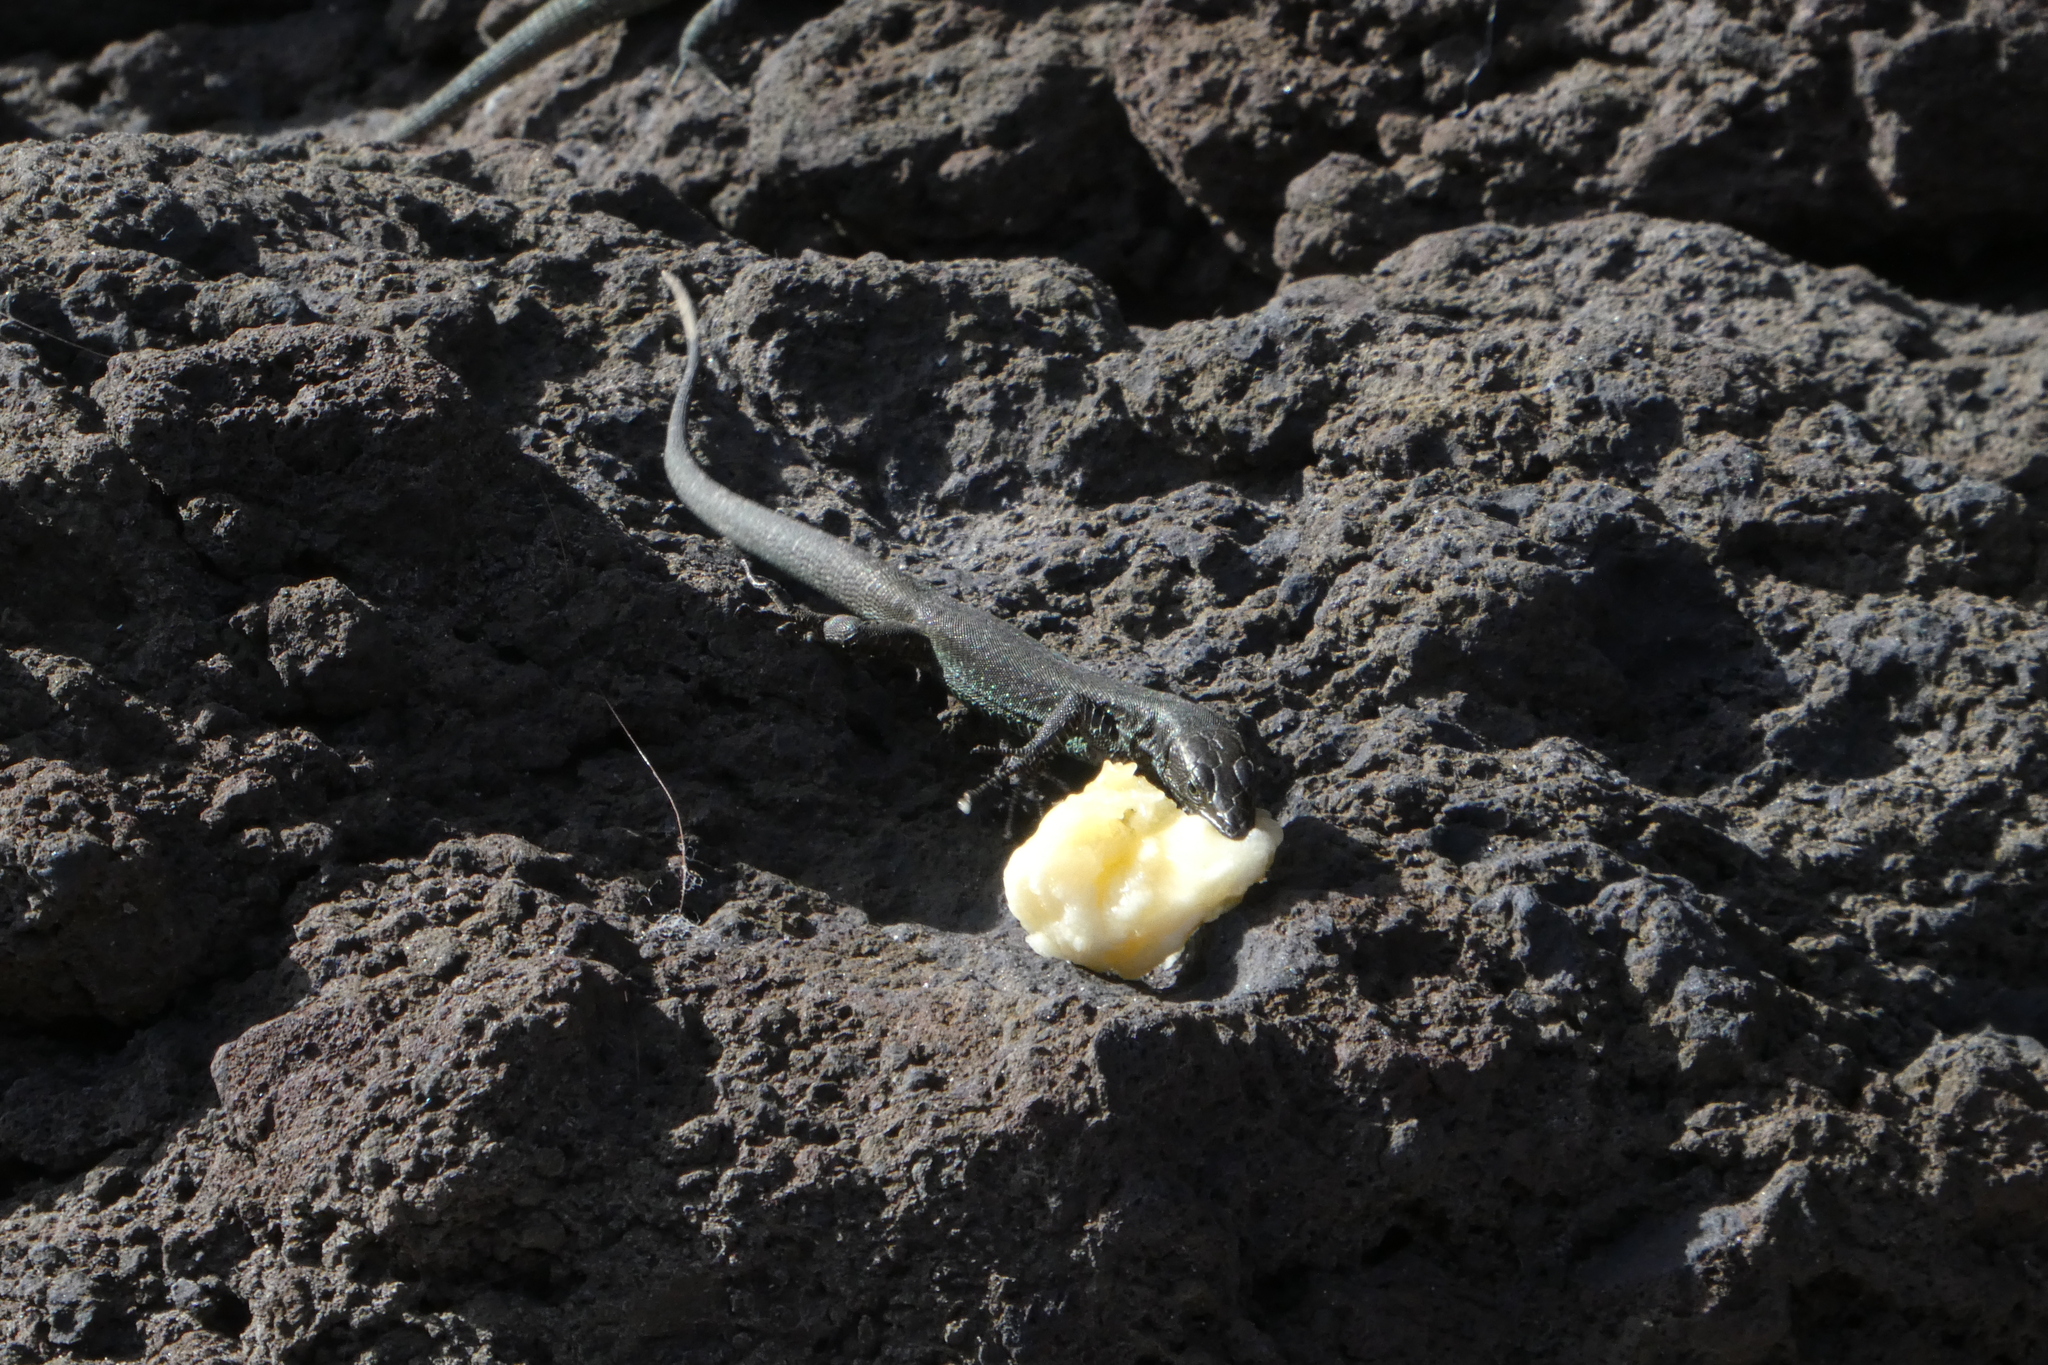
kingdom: Animalia
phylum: Chordata
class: Squamata
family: Lacertidae
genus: Teira
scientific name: Teira dugesii
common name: Madeira lizard
